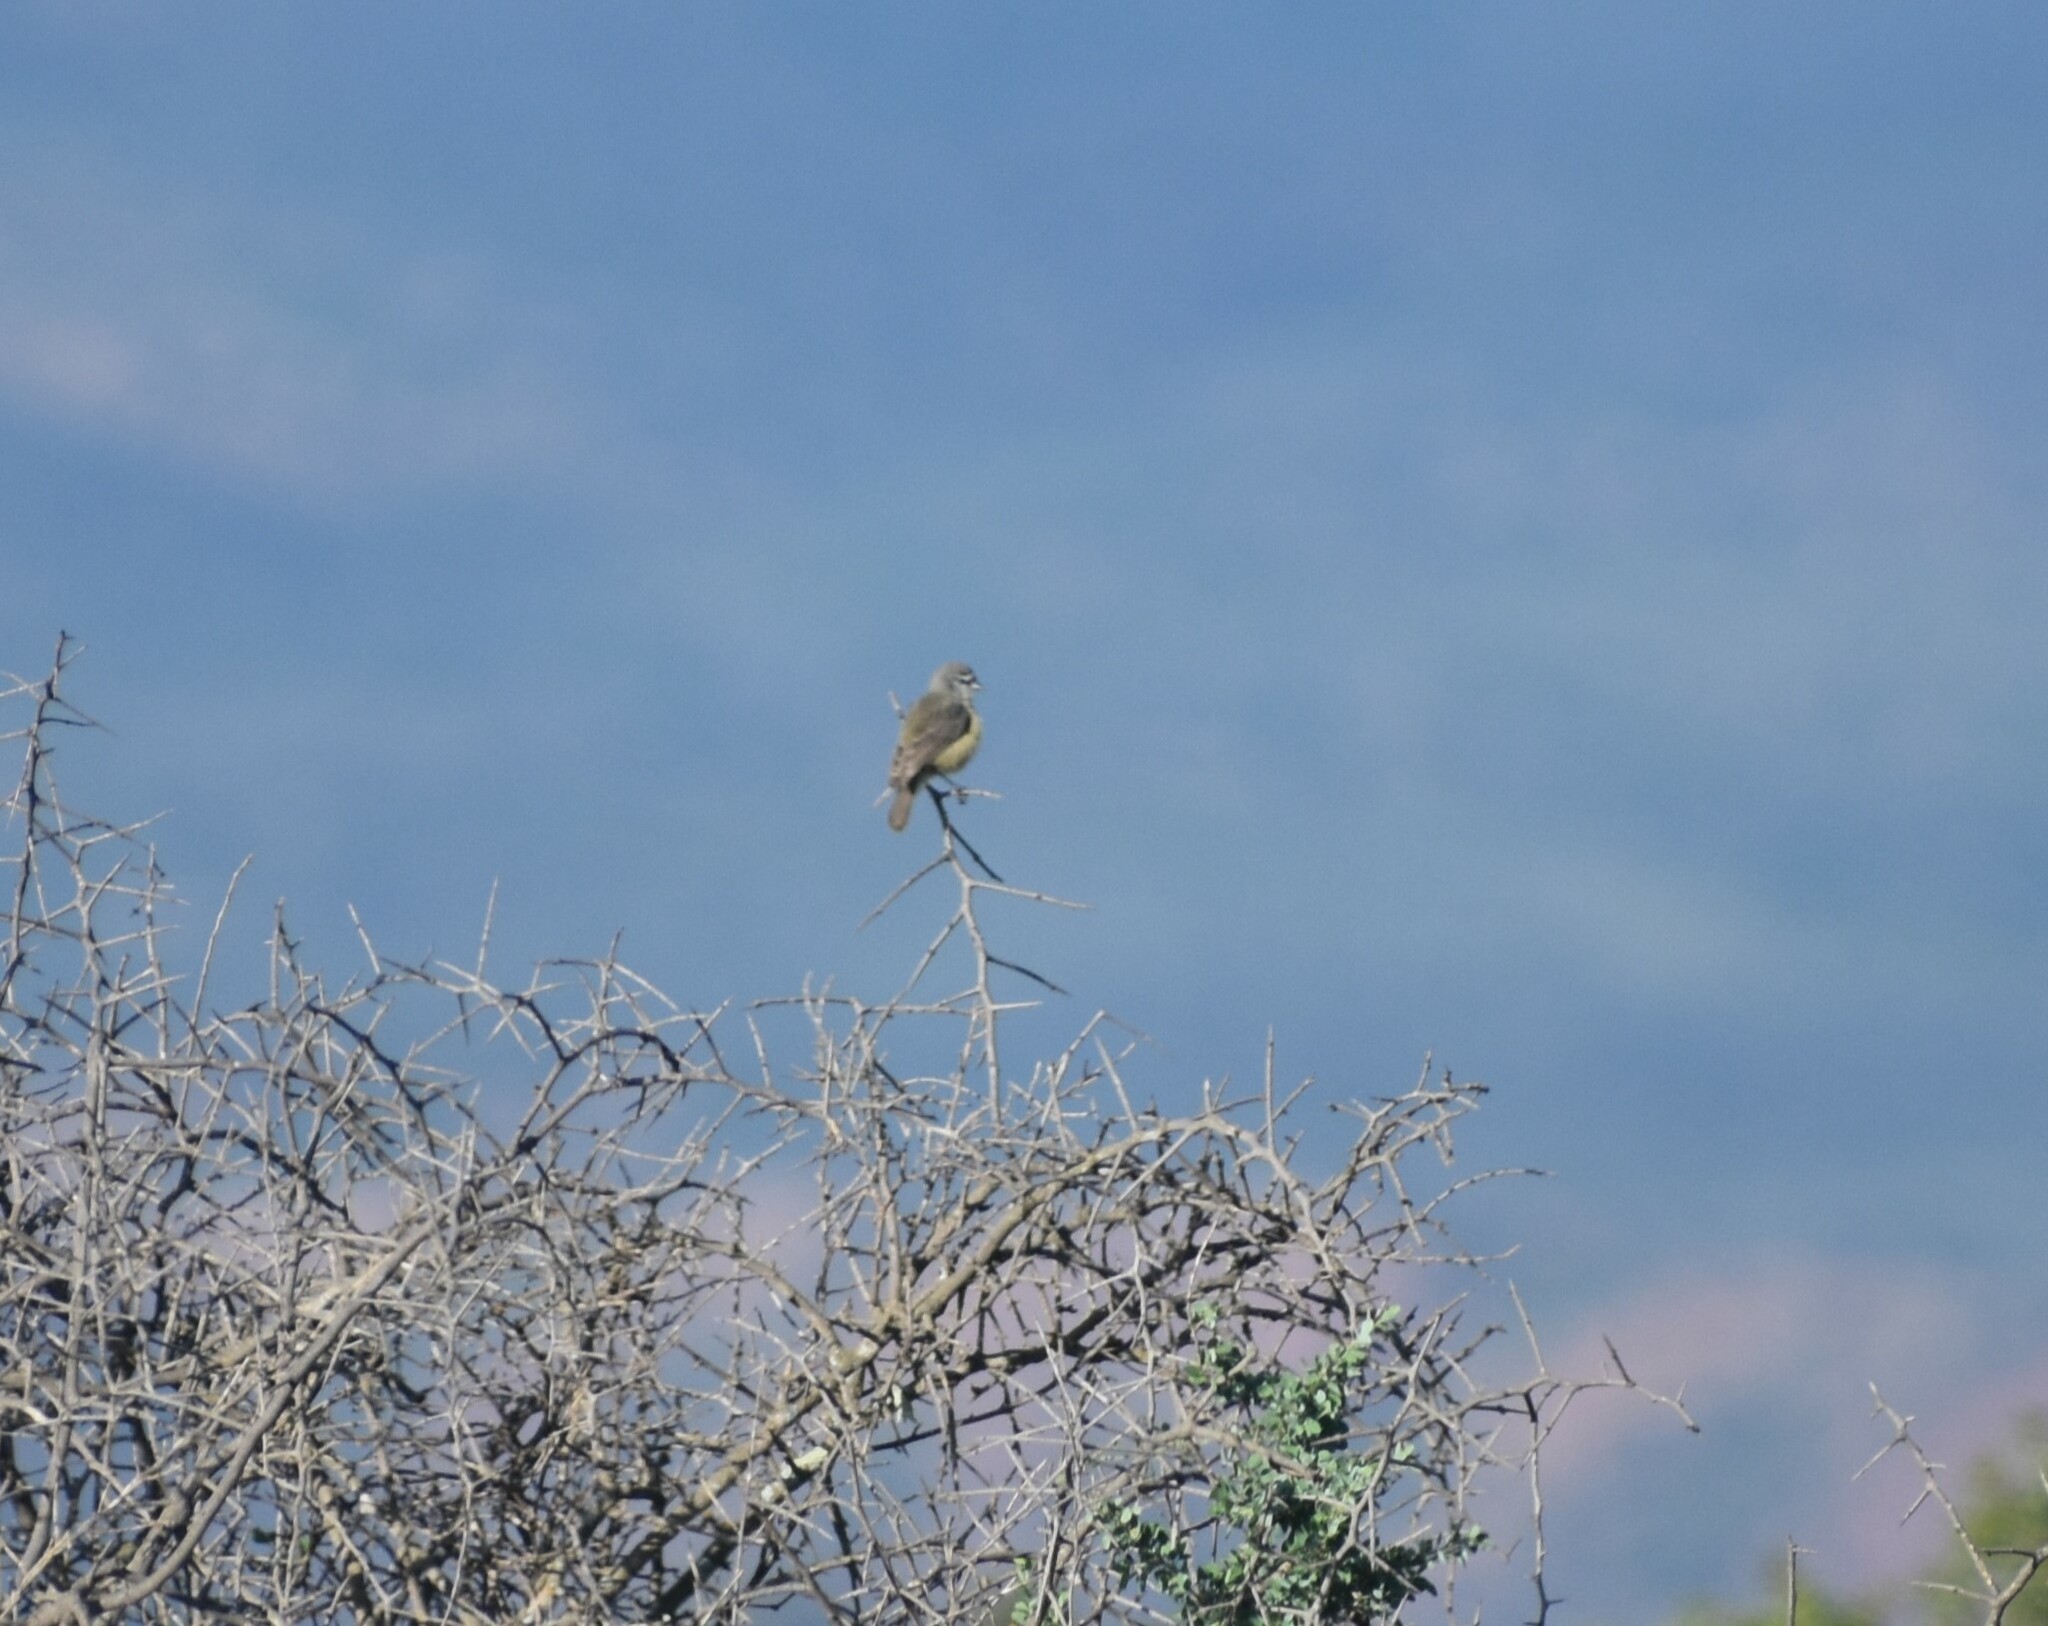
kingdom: Animalia
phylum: Chordata
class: Aves
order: Passeriformes
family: Remizidae
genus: Anthoscopus
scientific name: Anthoscopus minutus
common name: Cape penduline tit
